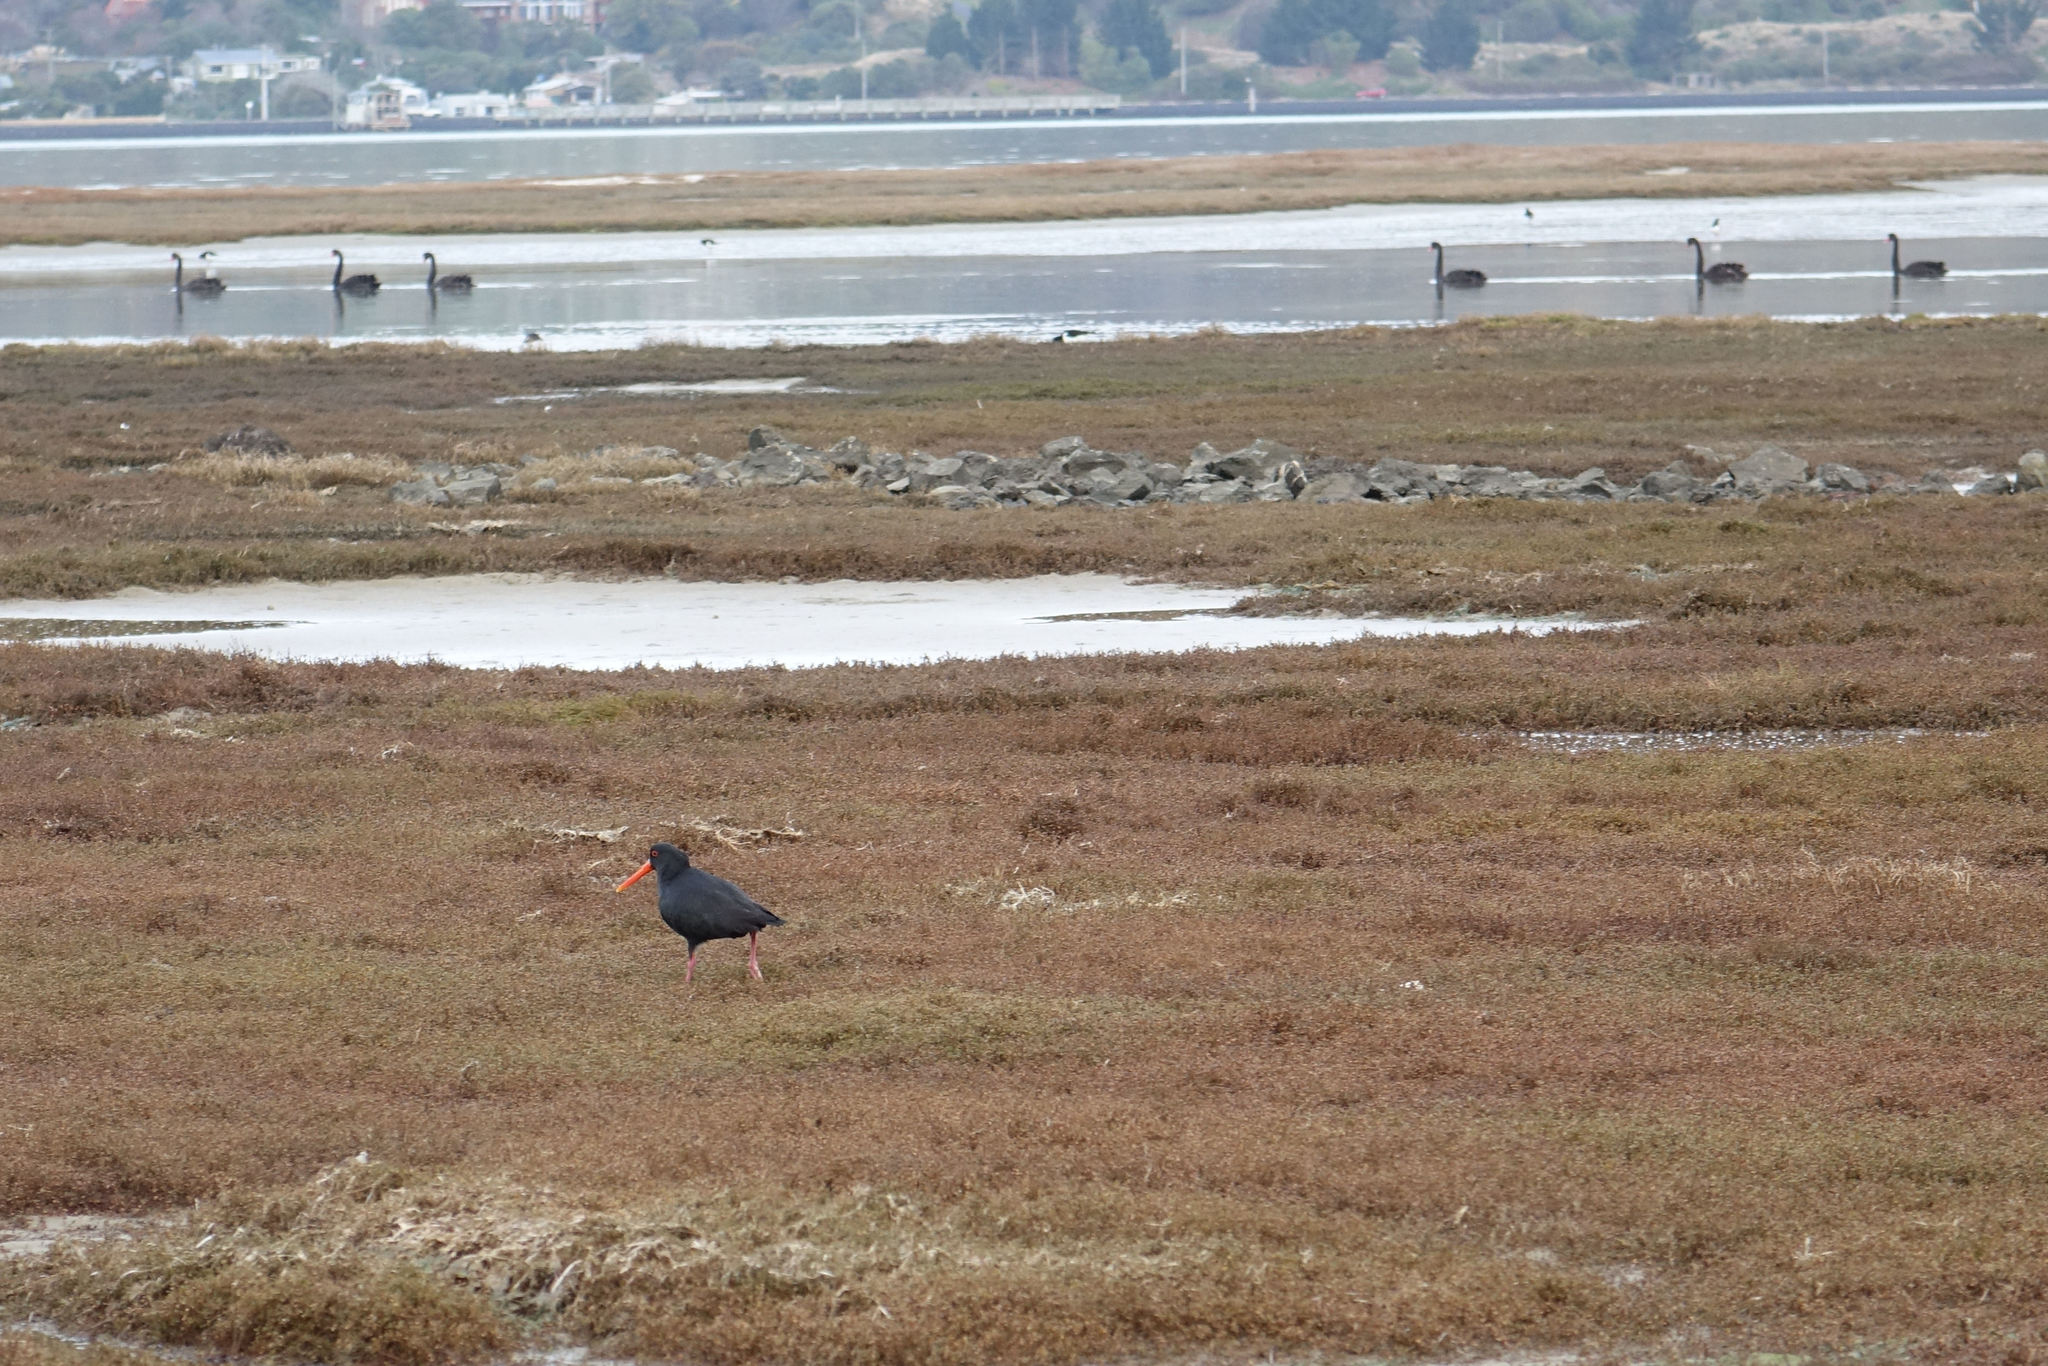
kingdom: Animalia
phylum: Chordata
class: Aves
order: Charadriiformes
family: Haematopodidae
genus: Haematopus
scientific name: Haematopus unicolor
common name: Variable oystercatcher
